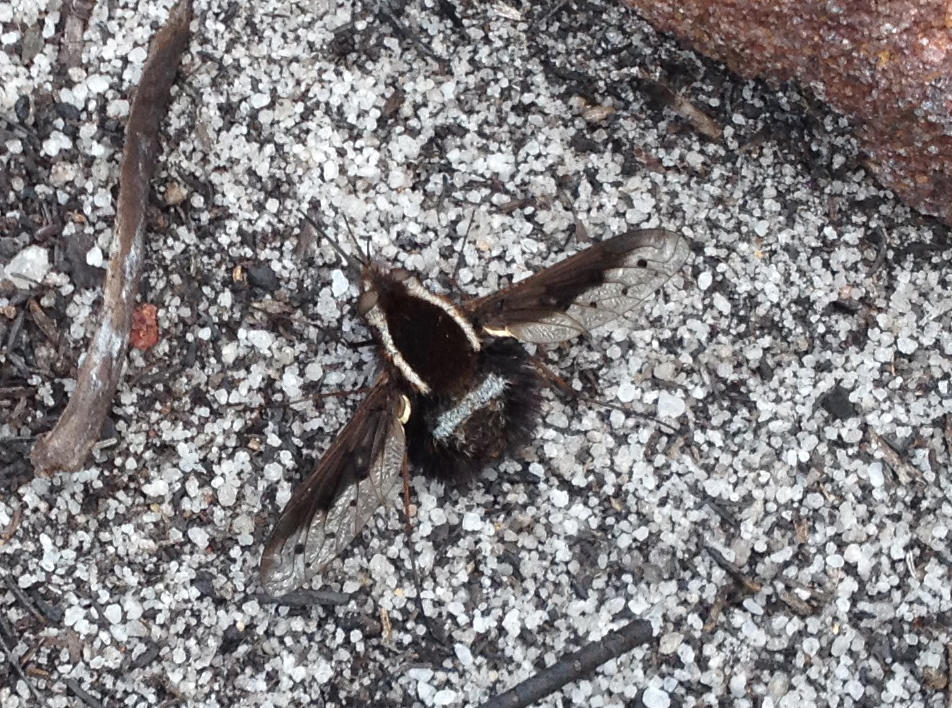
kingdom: Animalia
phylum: Arthropoda
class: Insecta
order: Diptera
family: Bombyliidae
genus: Triplasius
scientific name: Triplasius lateralis
